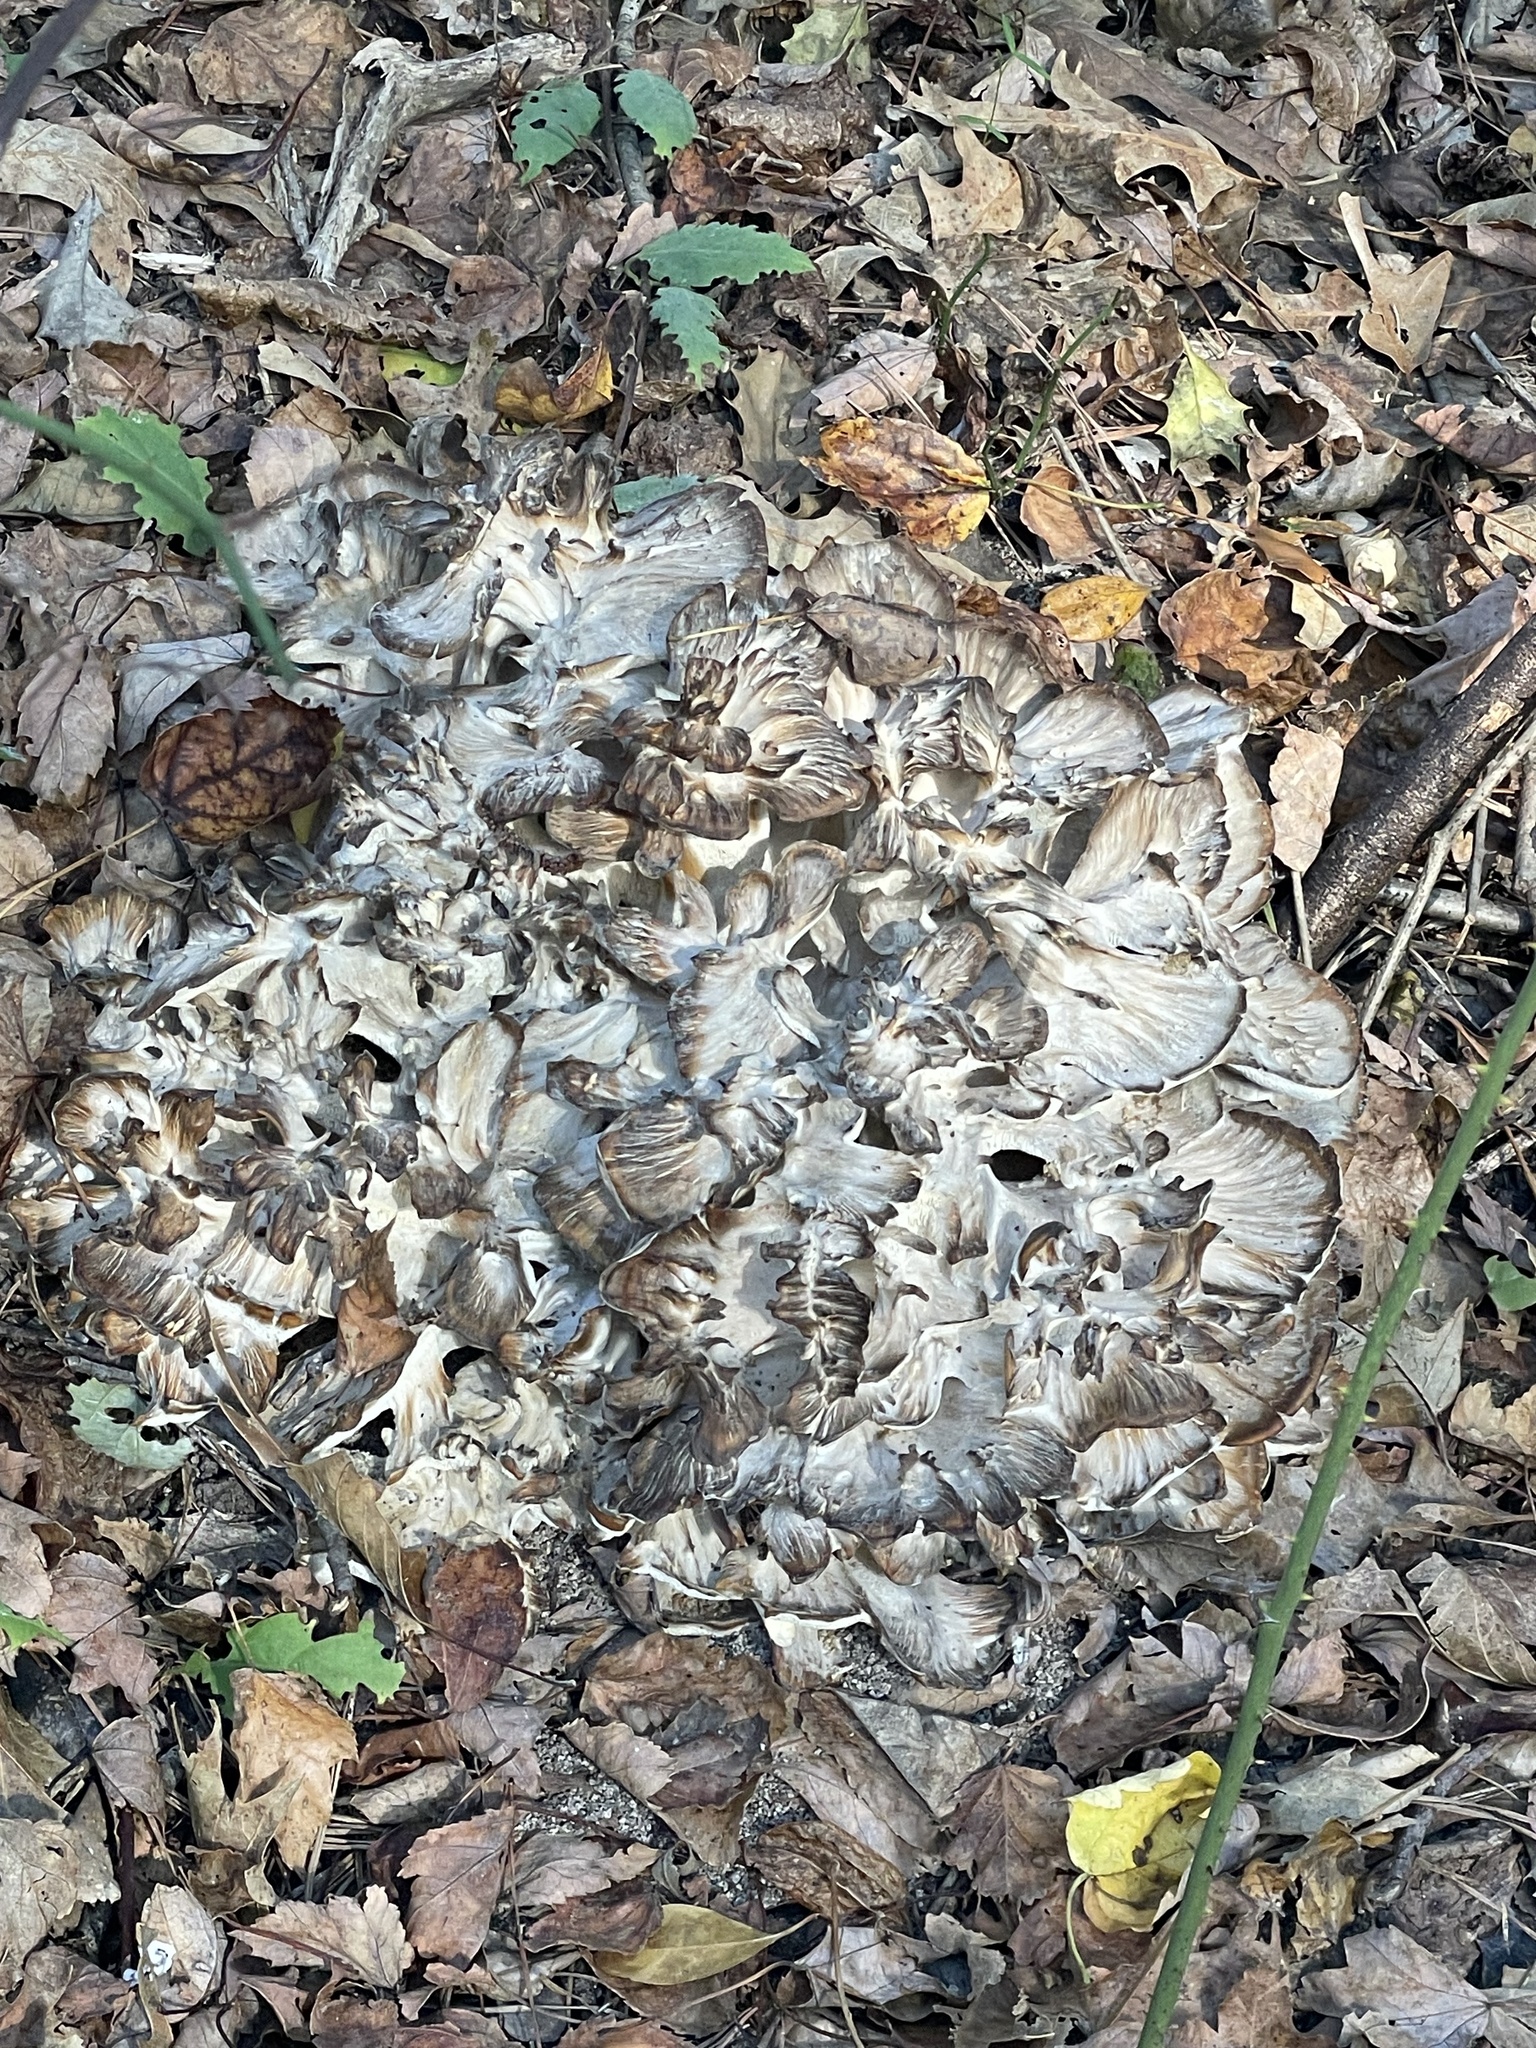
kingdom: Fungi
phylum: Basidiomycota
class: Agaricomycetes
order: Polyporales
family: Grifolaceae
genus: Grifola
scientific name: Grifola frondosa
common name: Hen of the woods
